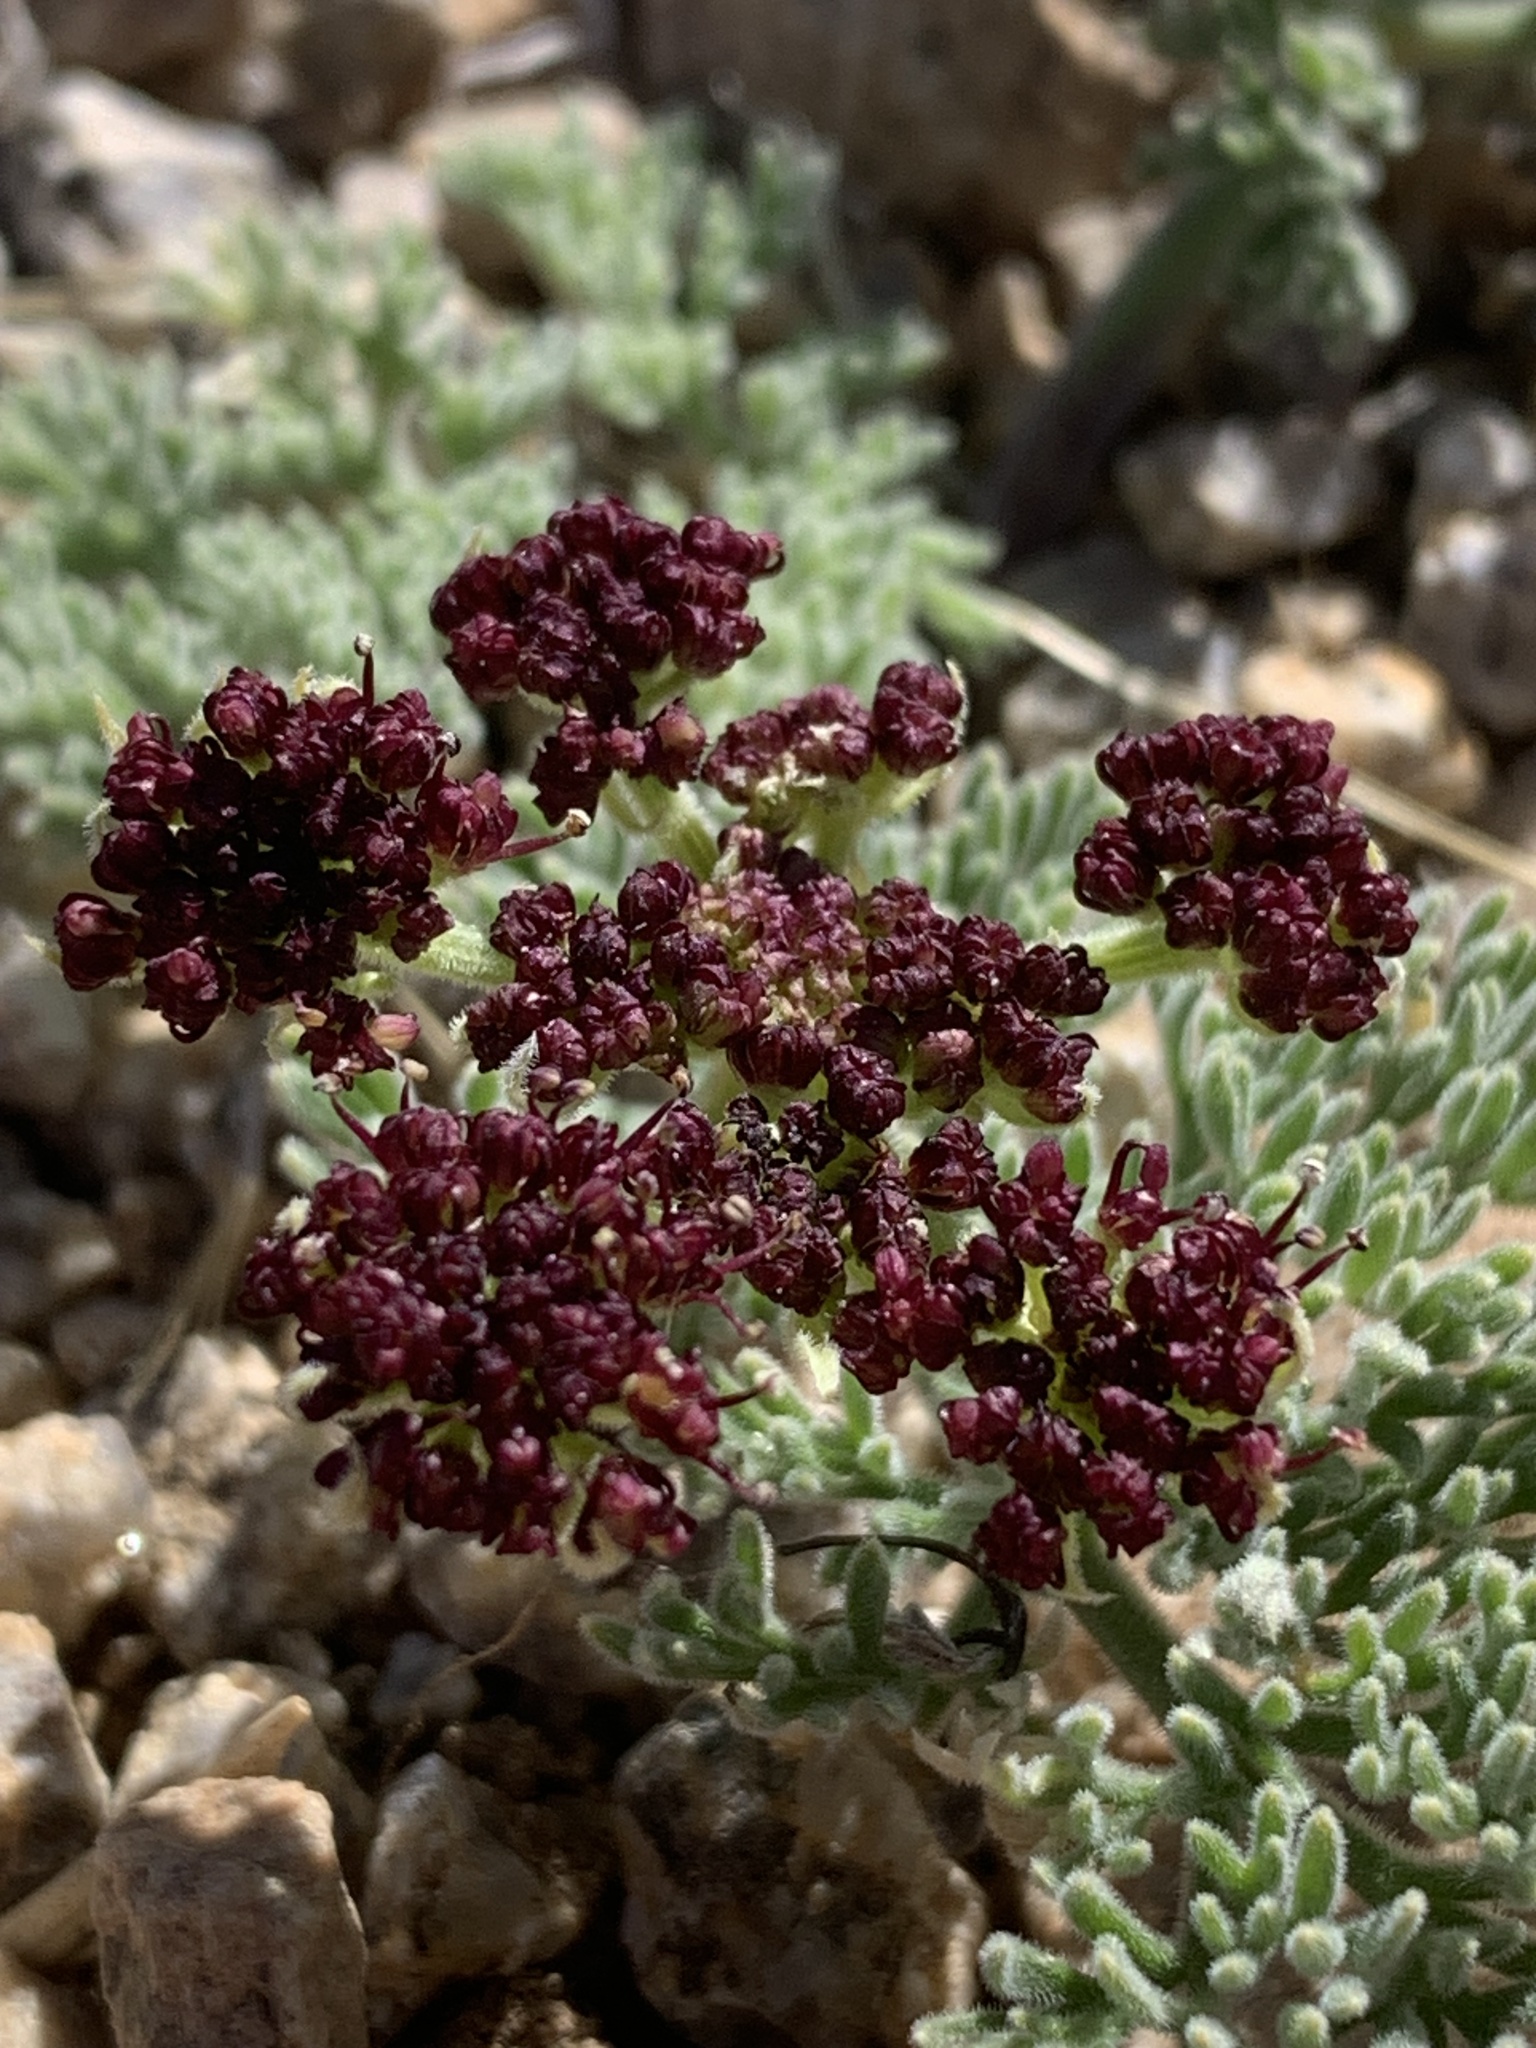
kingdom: Plantae
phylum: Tracheophyta
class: Magnoliopsida
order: Apiales
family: Apiaceae
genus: Lomatium
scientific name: Lomatium mohavense
